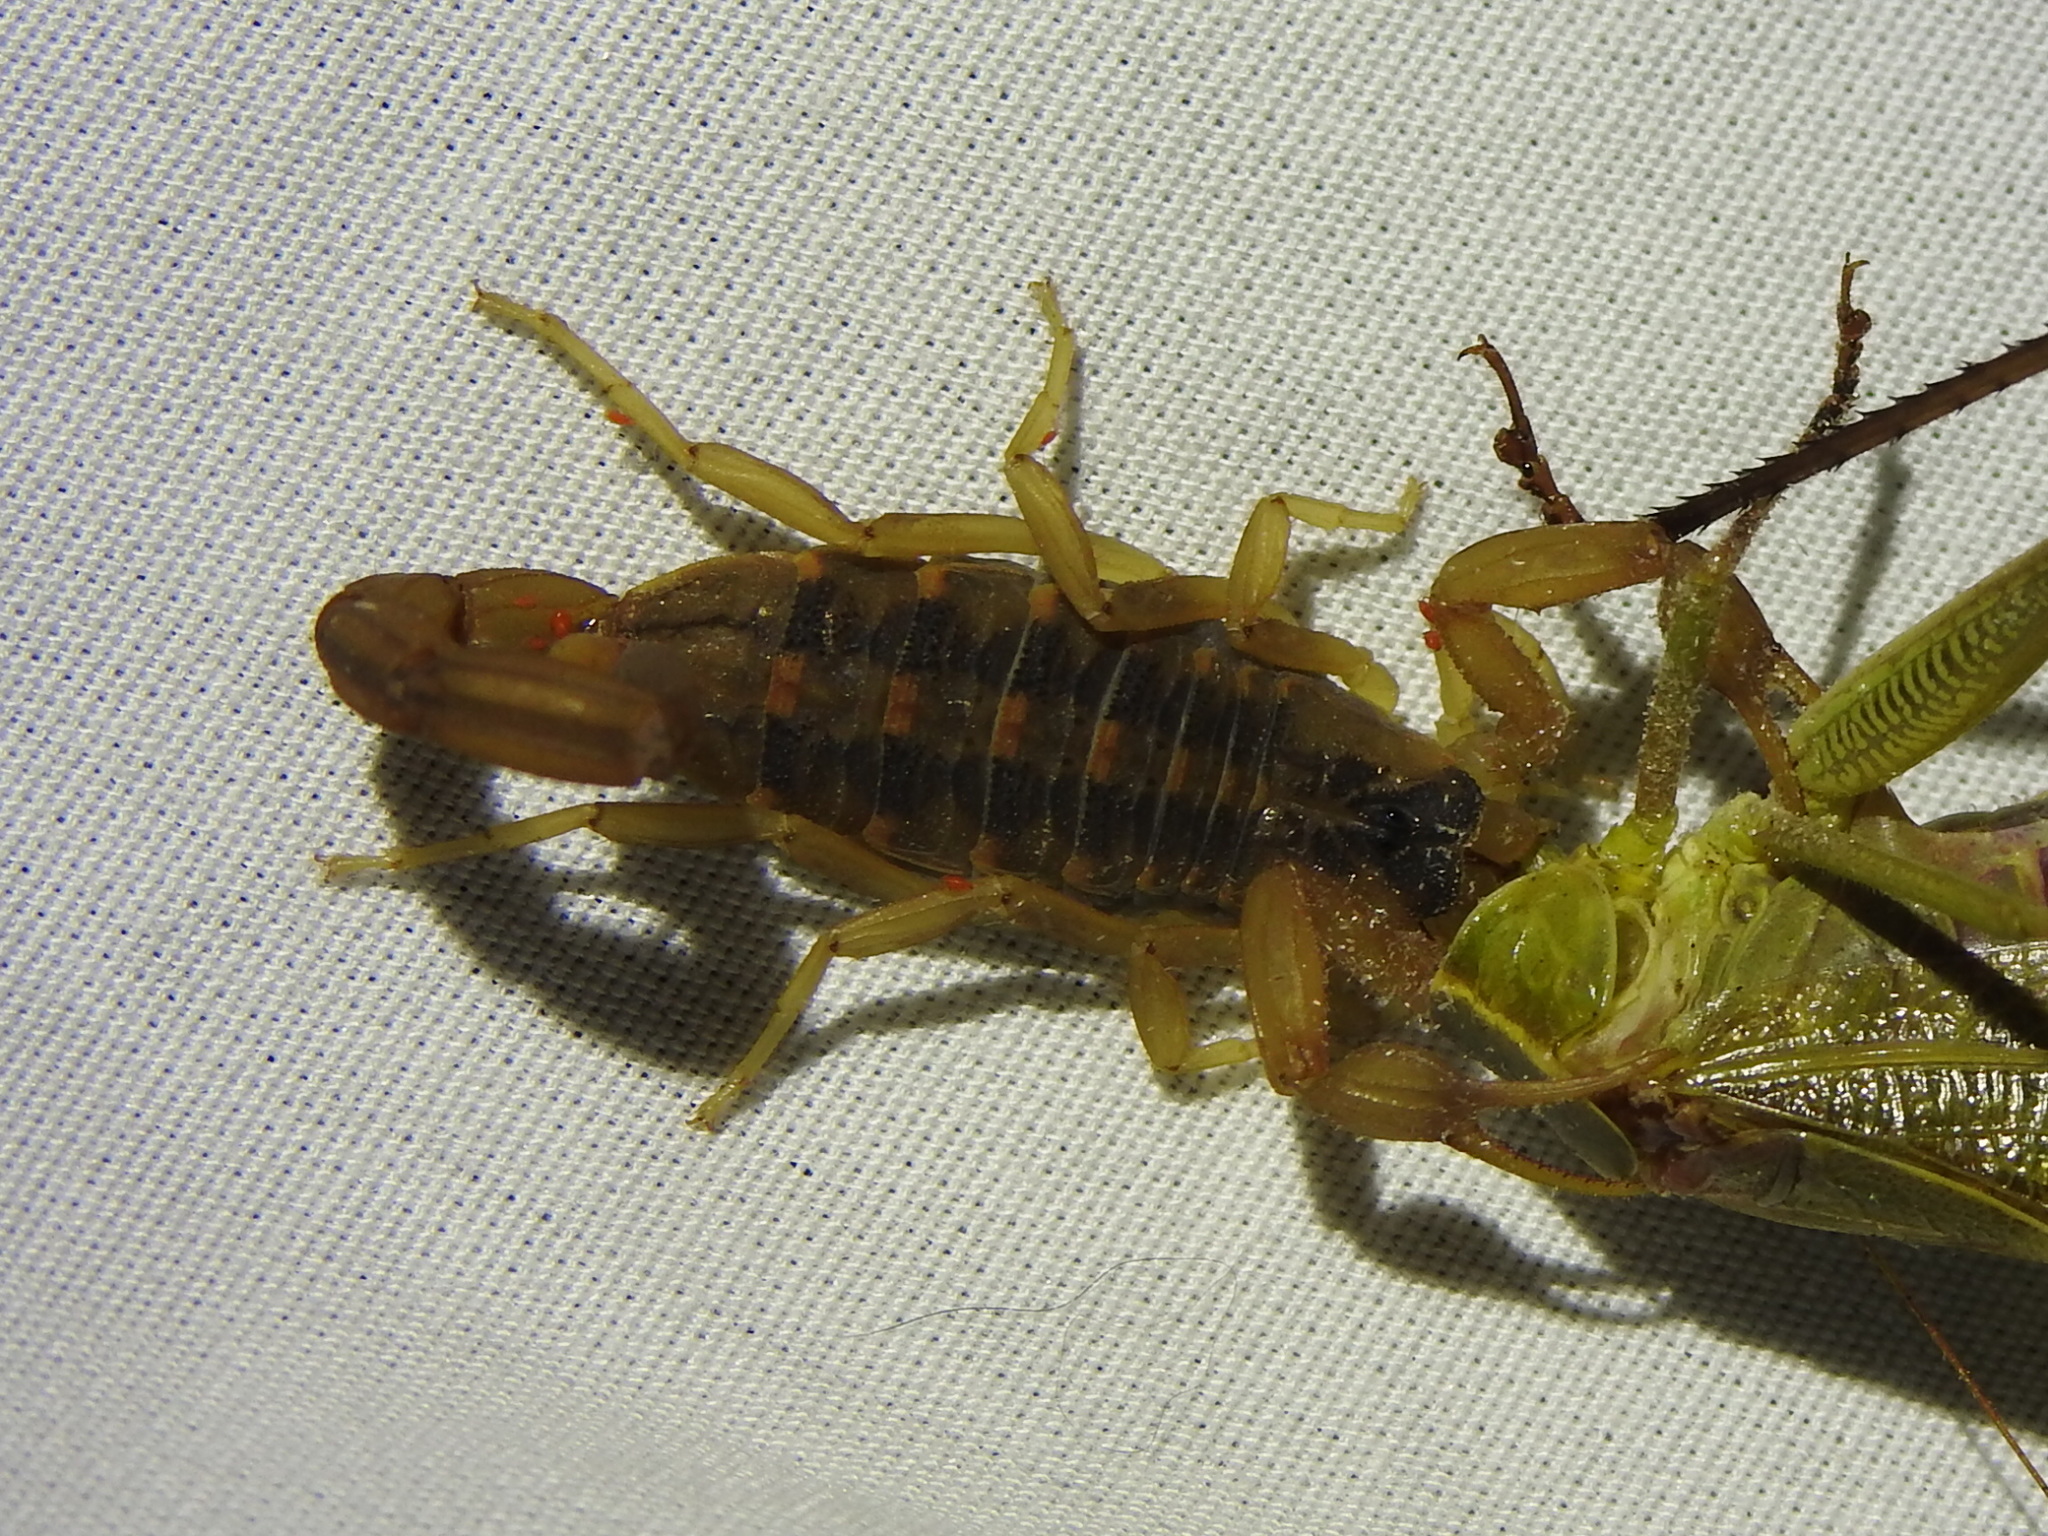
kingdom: Animalia
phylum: Arthropoda
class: Arachnida
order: Scorpiones
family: Buthidae
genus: Centruroides
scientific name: Centruroides vittatus
